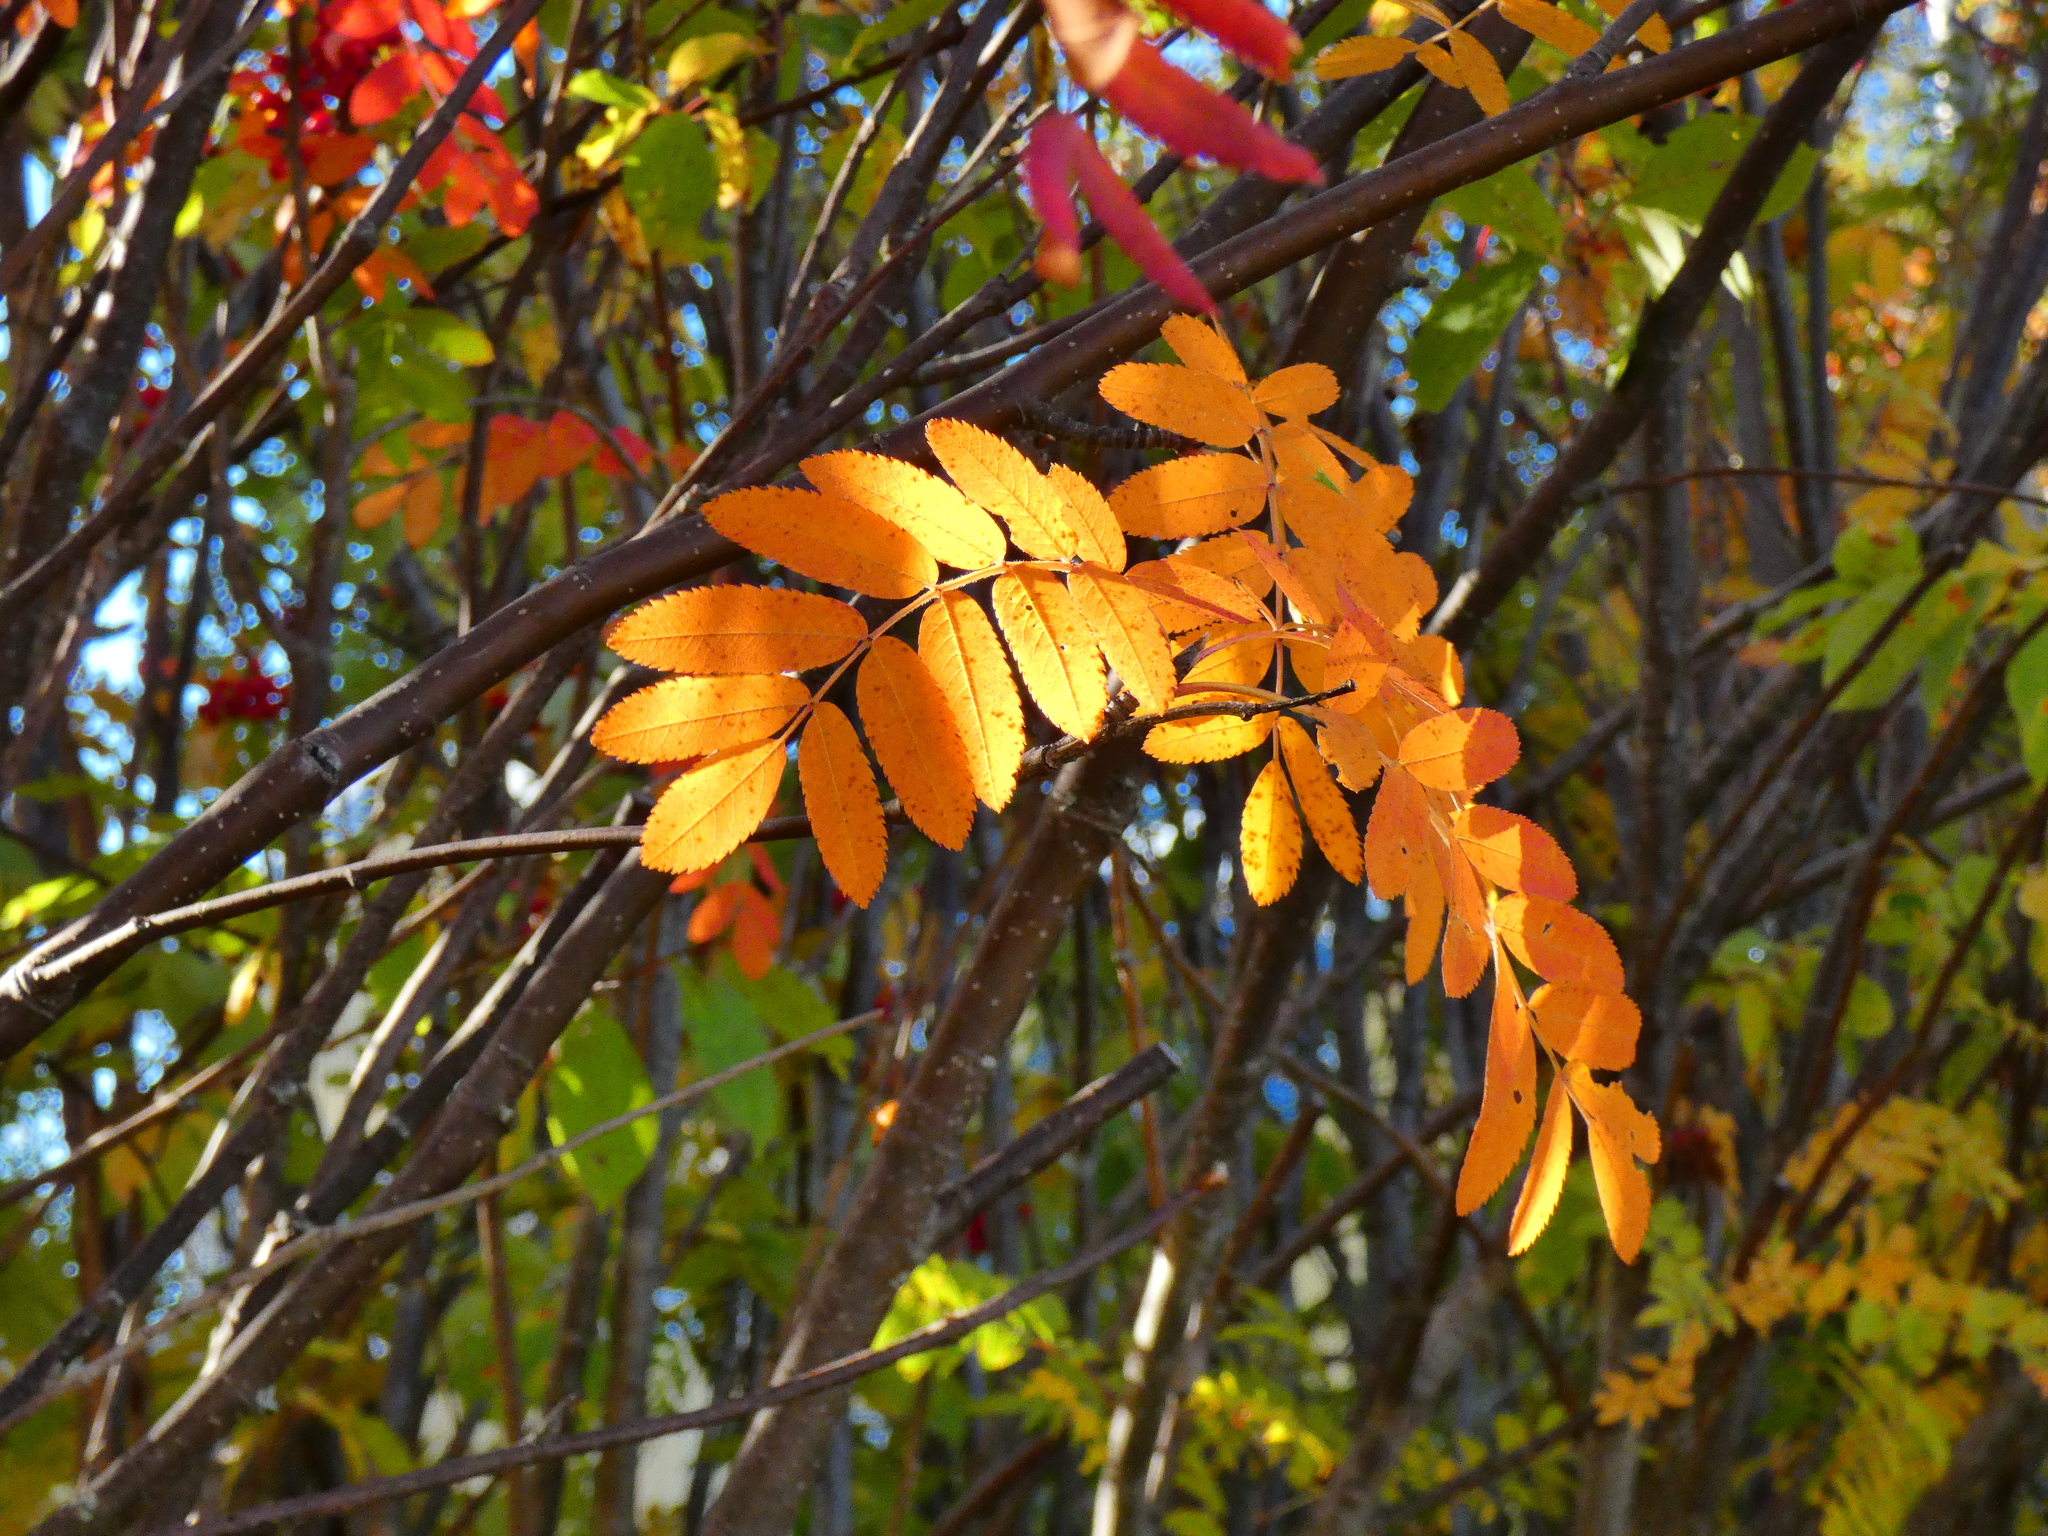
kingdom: Plantae
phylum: Tracheophyta
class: Magnoliopsida
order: Rosales
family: Rosaceae
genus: Sorbus
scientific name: Sorbus aucuparia
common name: Rowan
